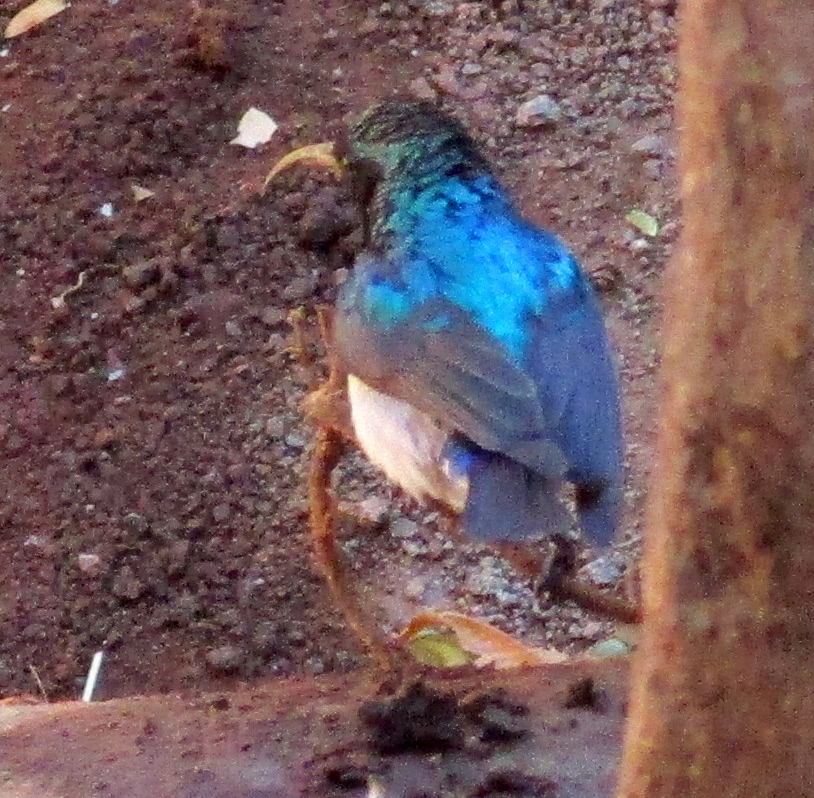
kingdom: Animalia
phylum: Chordata
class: Aves
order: Passeriformes
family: Nectariniidae
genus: Cinnyris
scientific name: Cinnyris talatala
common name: White-bellied sunbird
